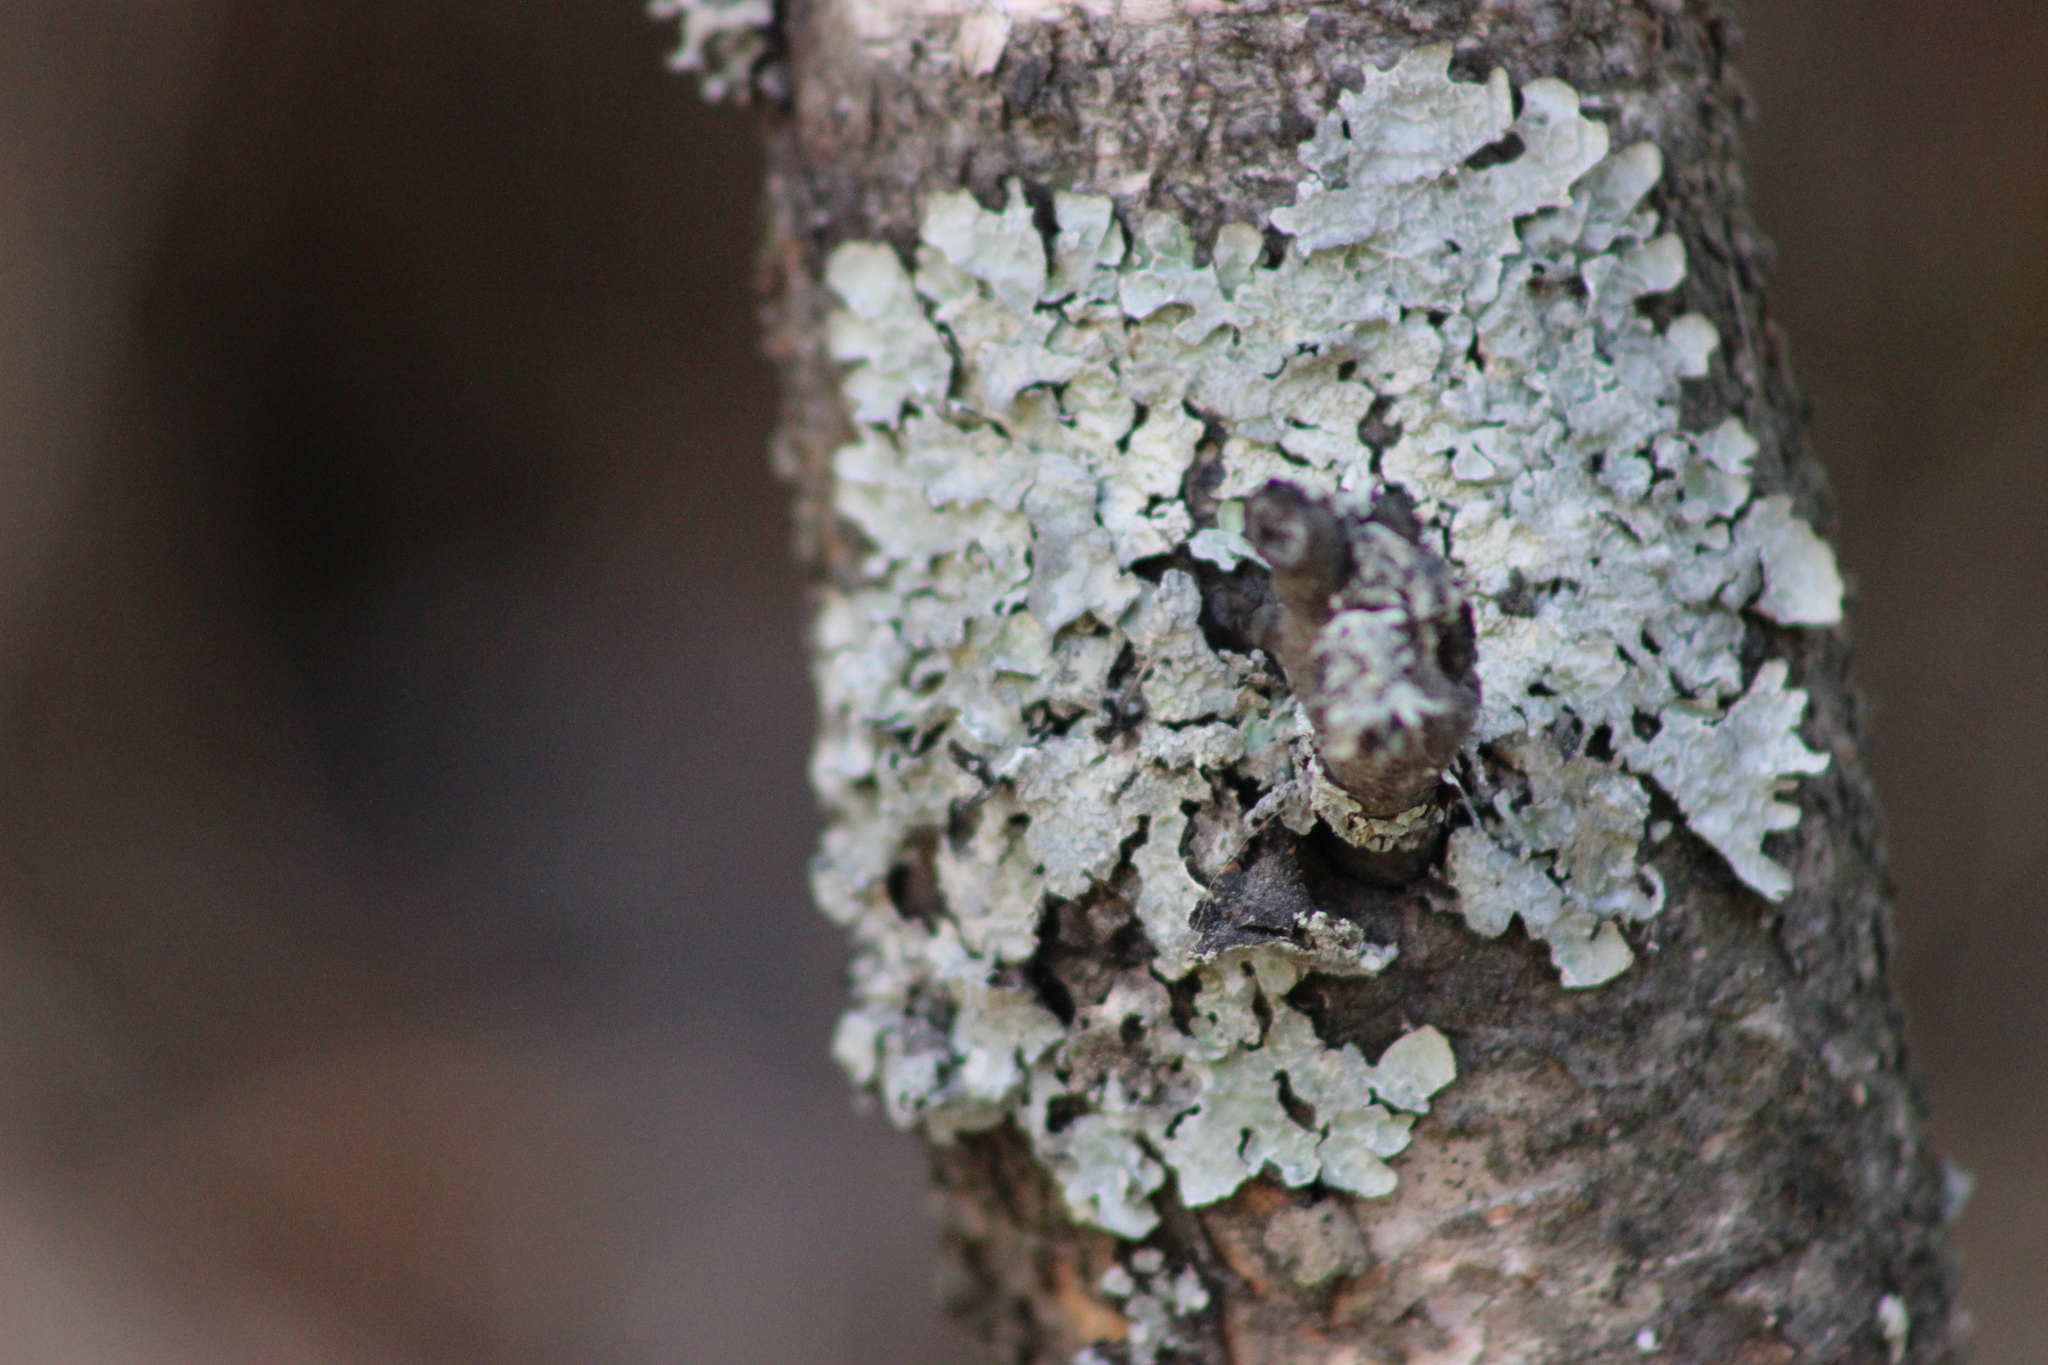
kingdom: Fungi
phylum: Ascomycota
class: Lecanoromycetes
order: Lecanorales
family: Parmeliaceae
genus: Parmelia
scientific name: Parmelia sulcata
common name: Netted shield lichen
